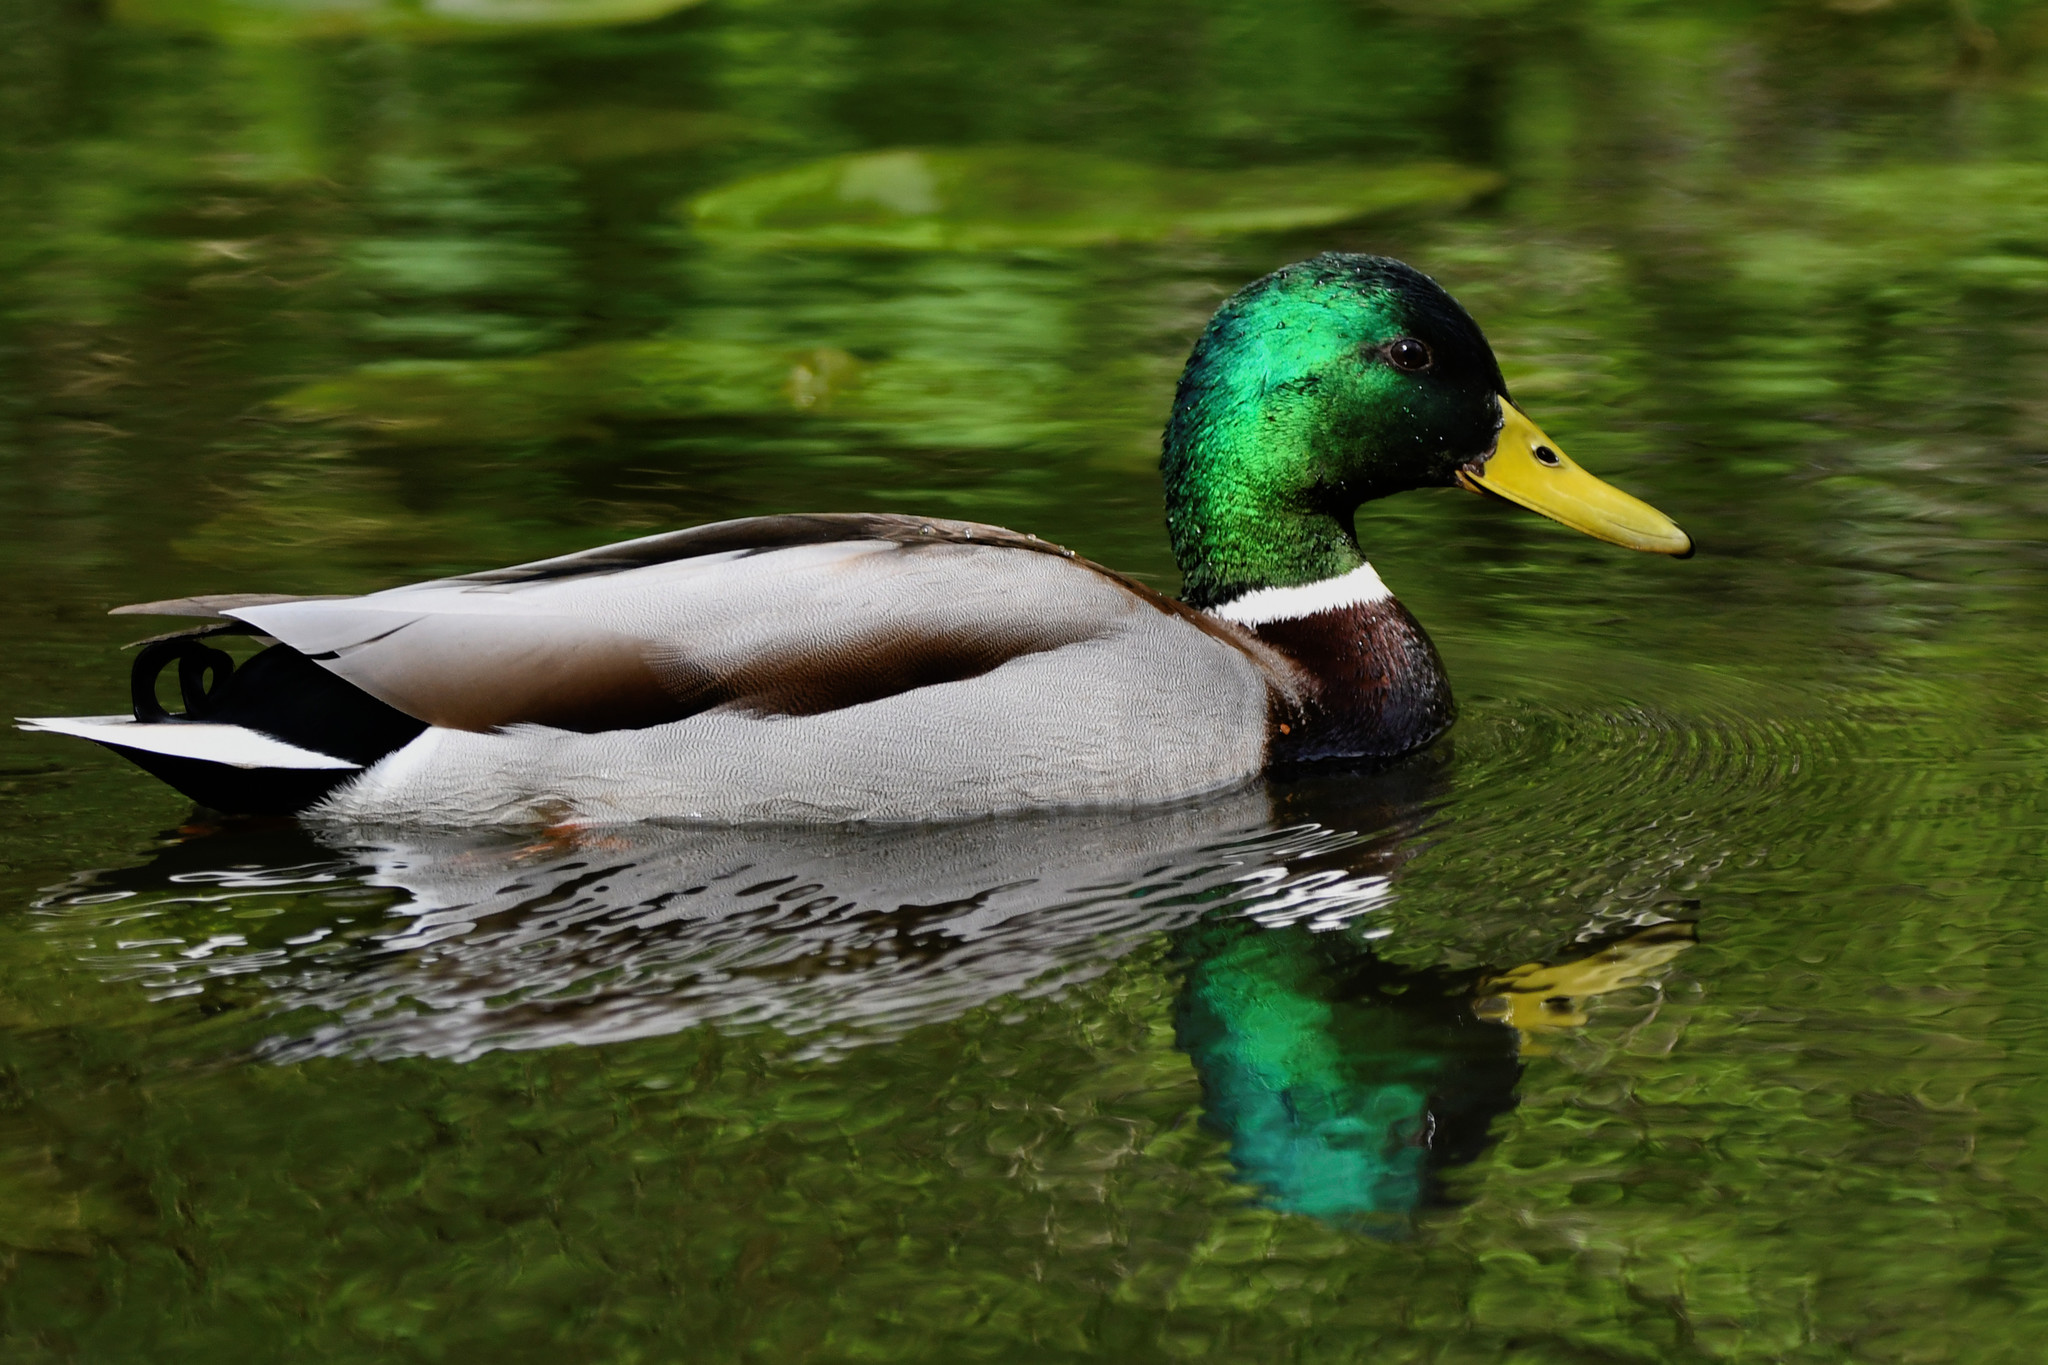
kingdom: Animalia
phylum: Chordata
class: Aves
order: Anseriformes
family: Anatidae
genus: Anas
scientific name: Anas platyrhynchos
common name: Mallard
